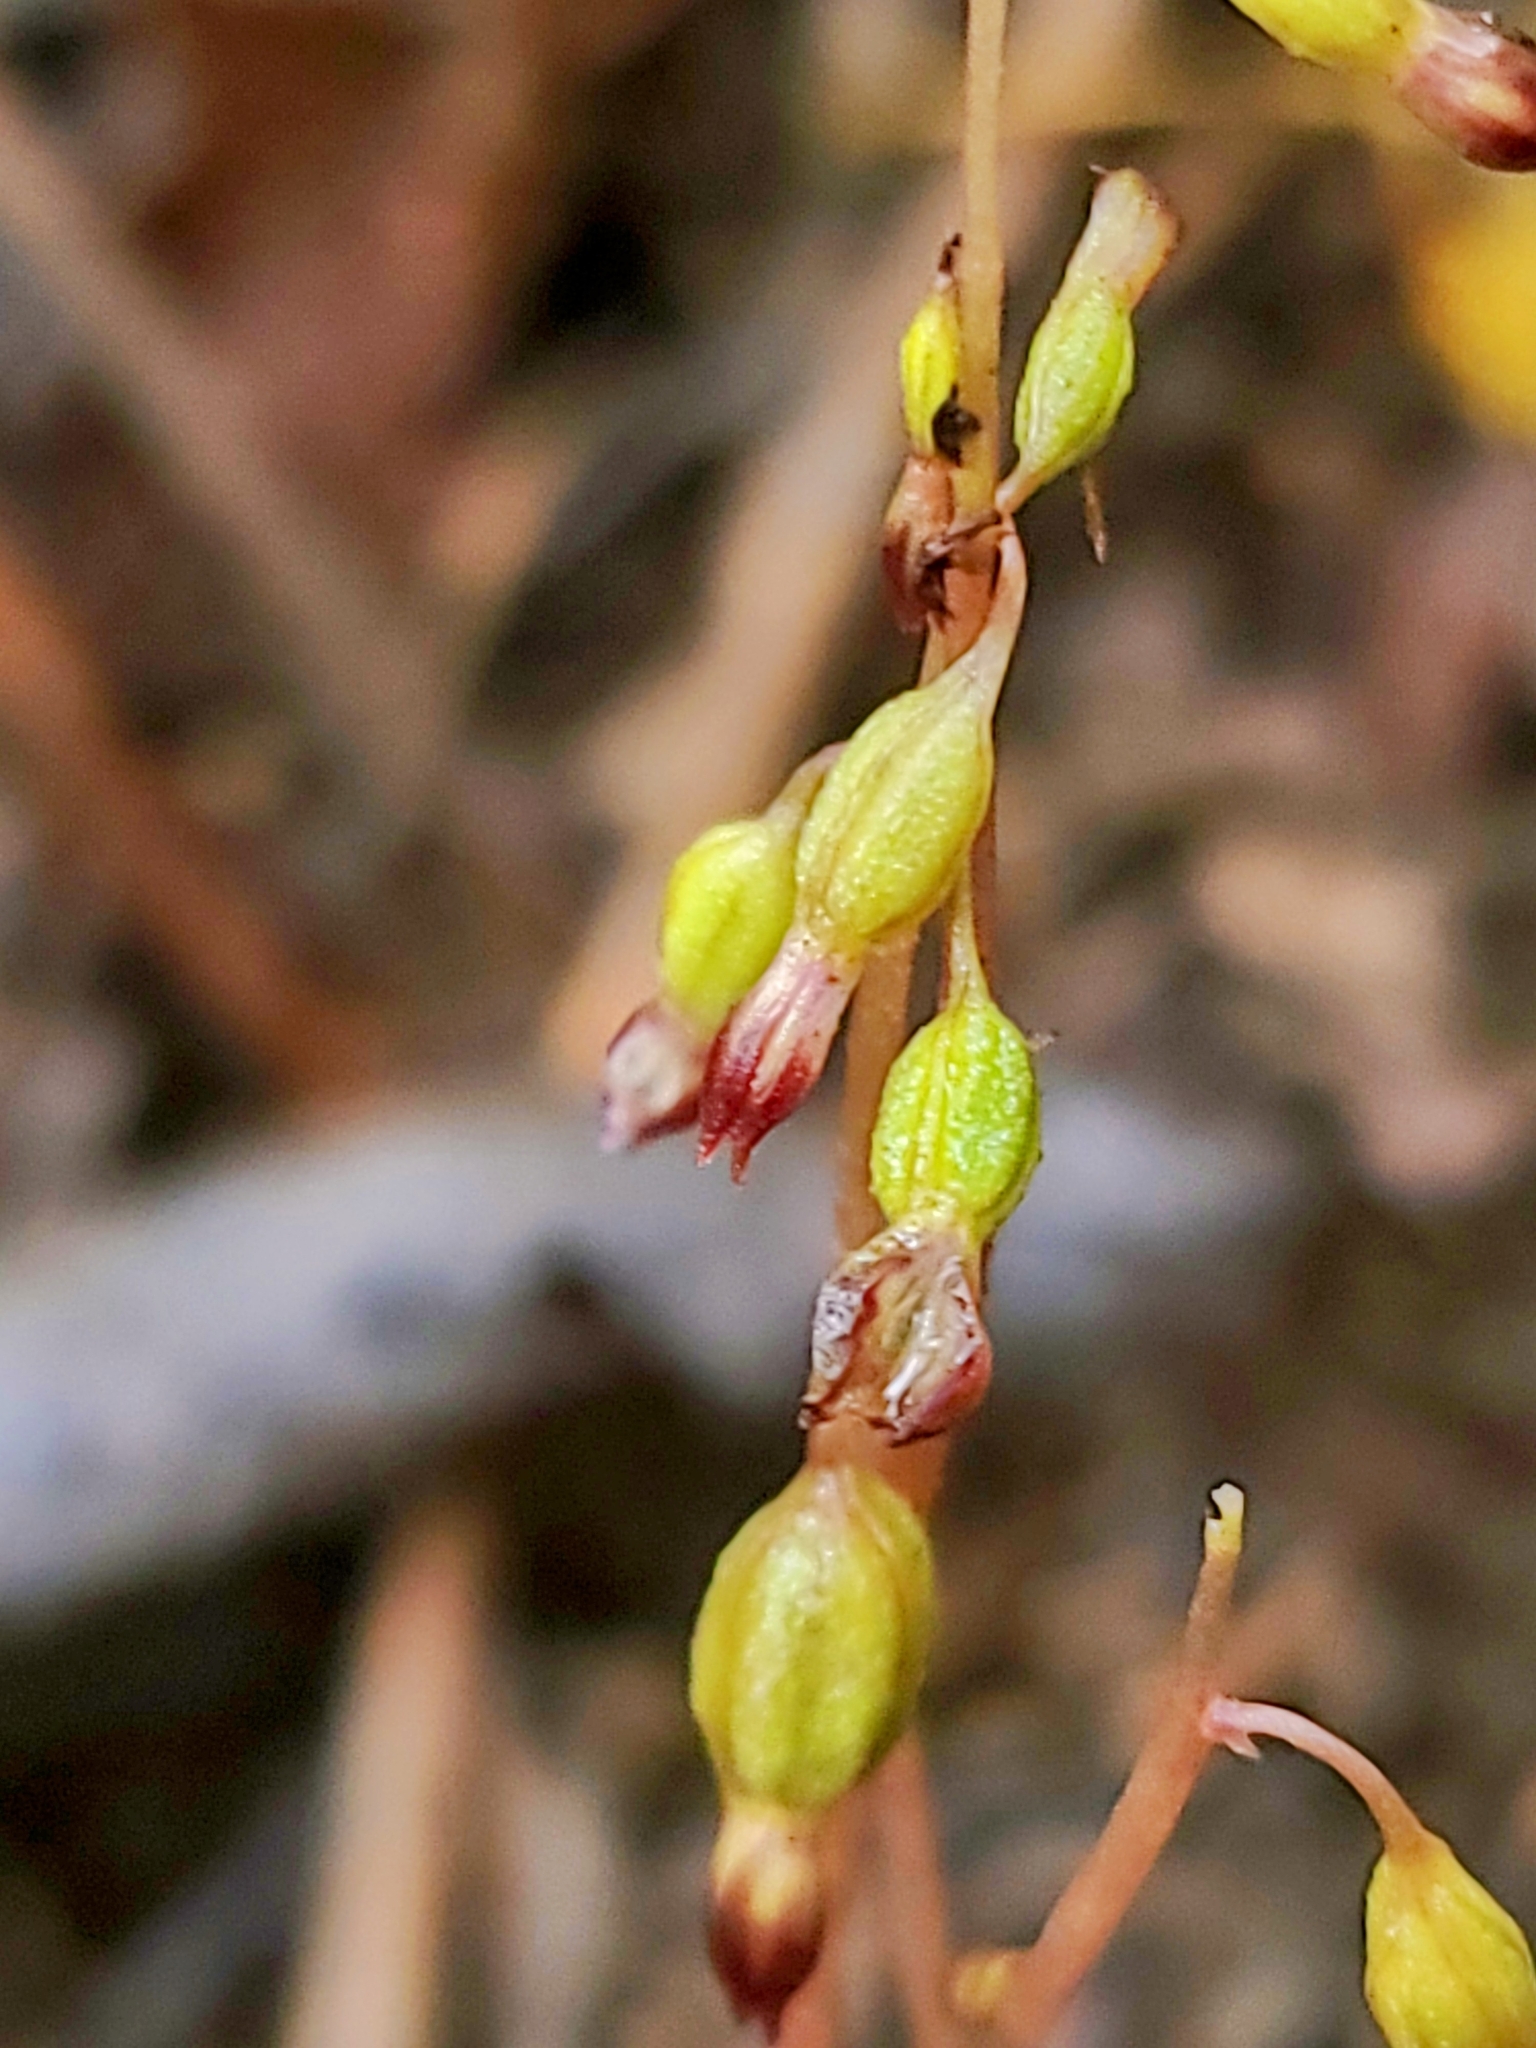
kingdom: Plantae
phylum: Tracheophyta
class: Liliopsida
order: Asparagales
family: Orchidaceae
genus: Corallorhiza
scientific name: Corallorhiza odontorhiza
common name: Autumn coralroot
